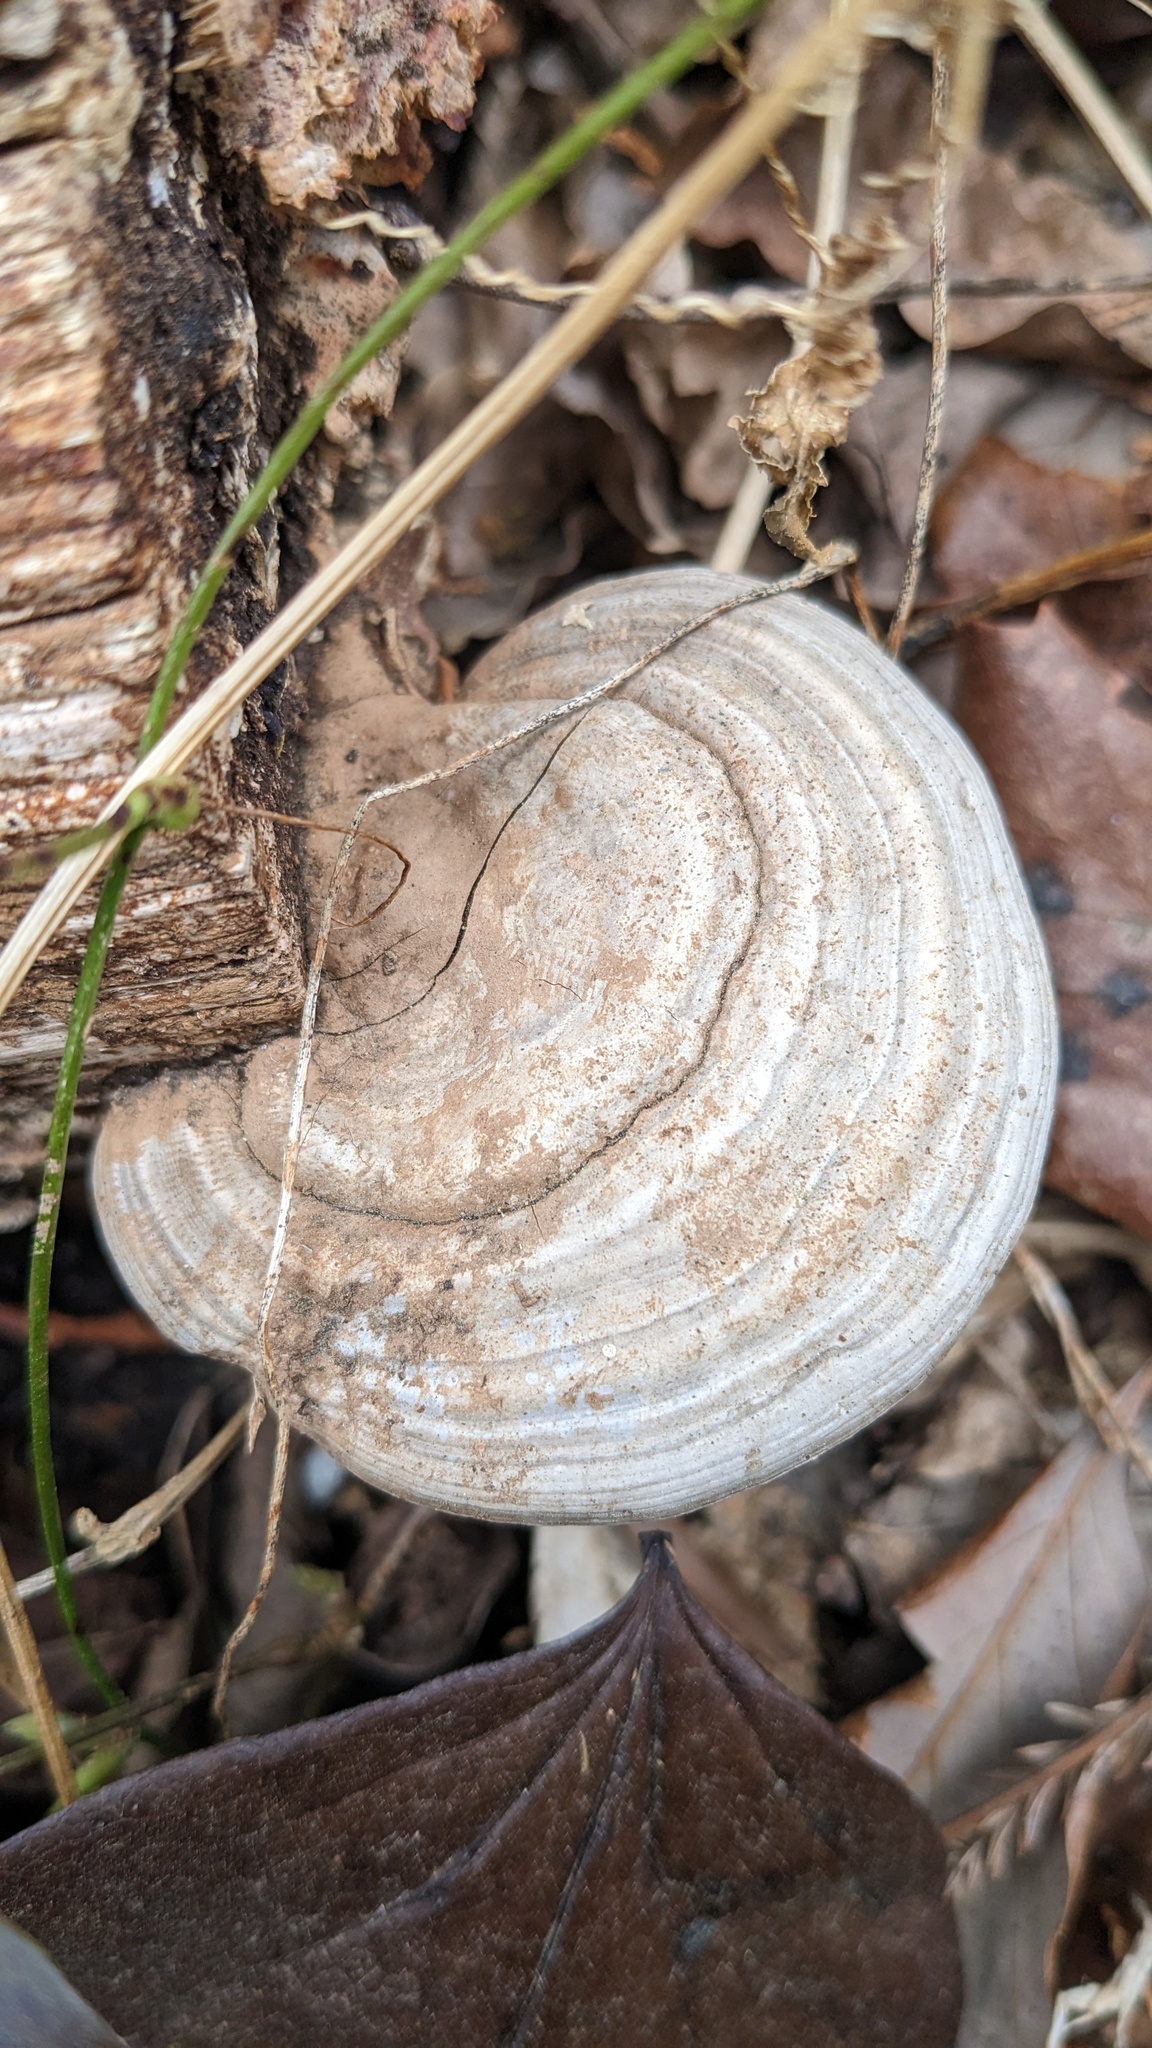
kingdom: Fungi
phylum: Basidiomycota
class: Agaricomycetes
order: Polyporales
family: Polyporaceae
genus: Ganoderma
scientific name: Ganoderma applanatum
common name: Artist's bracket
